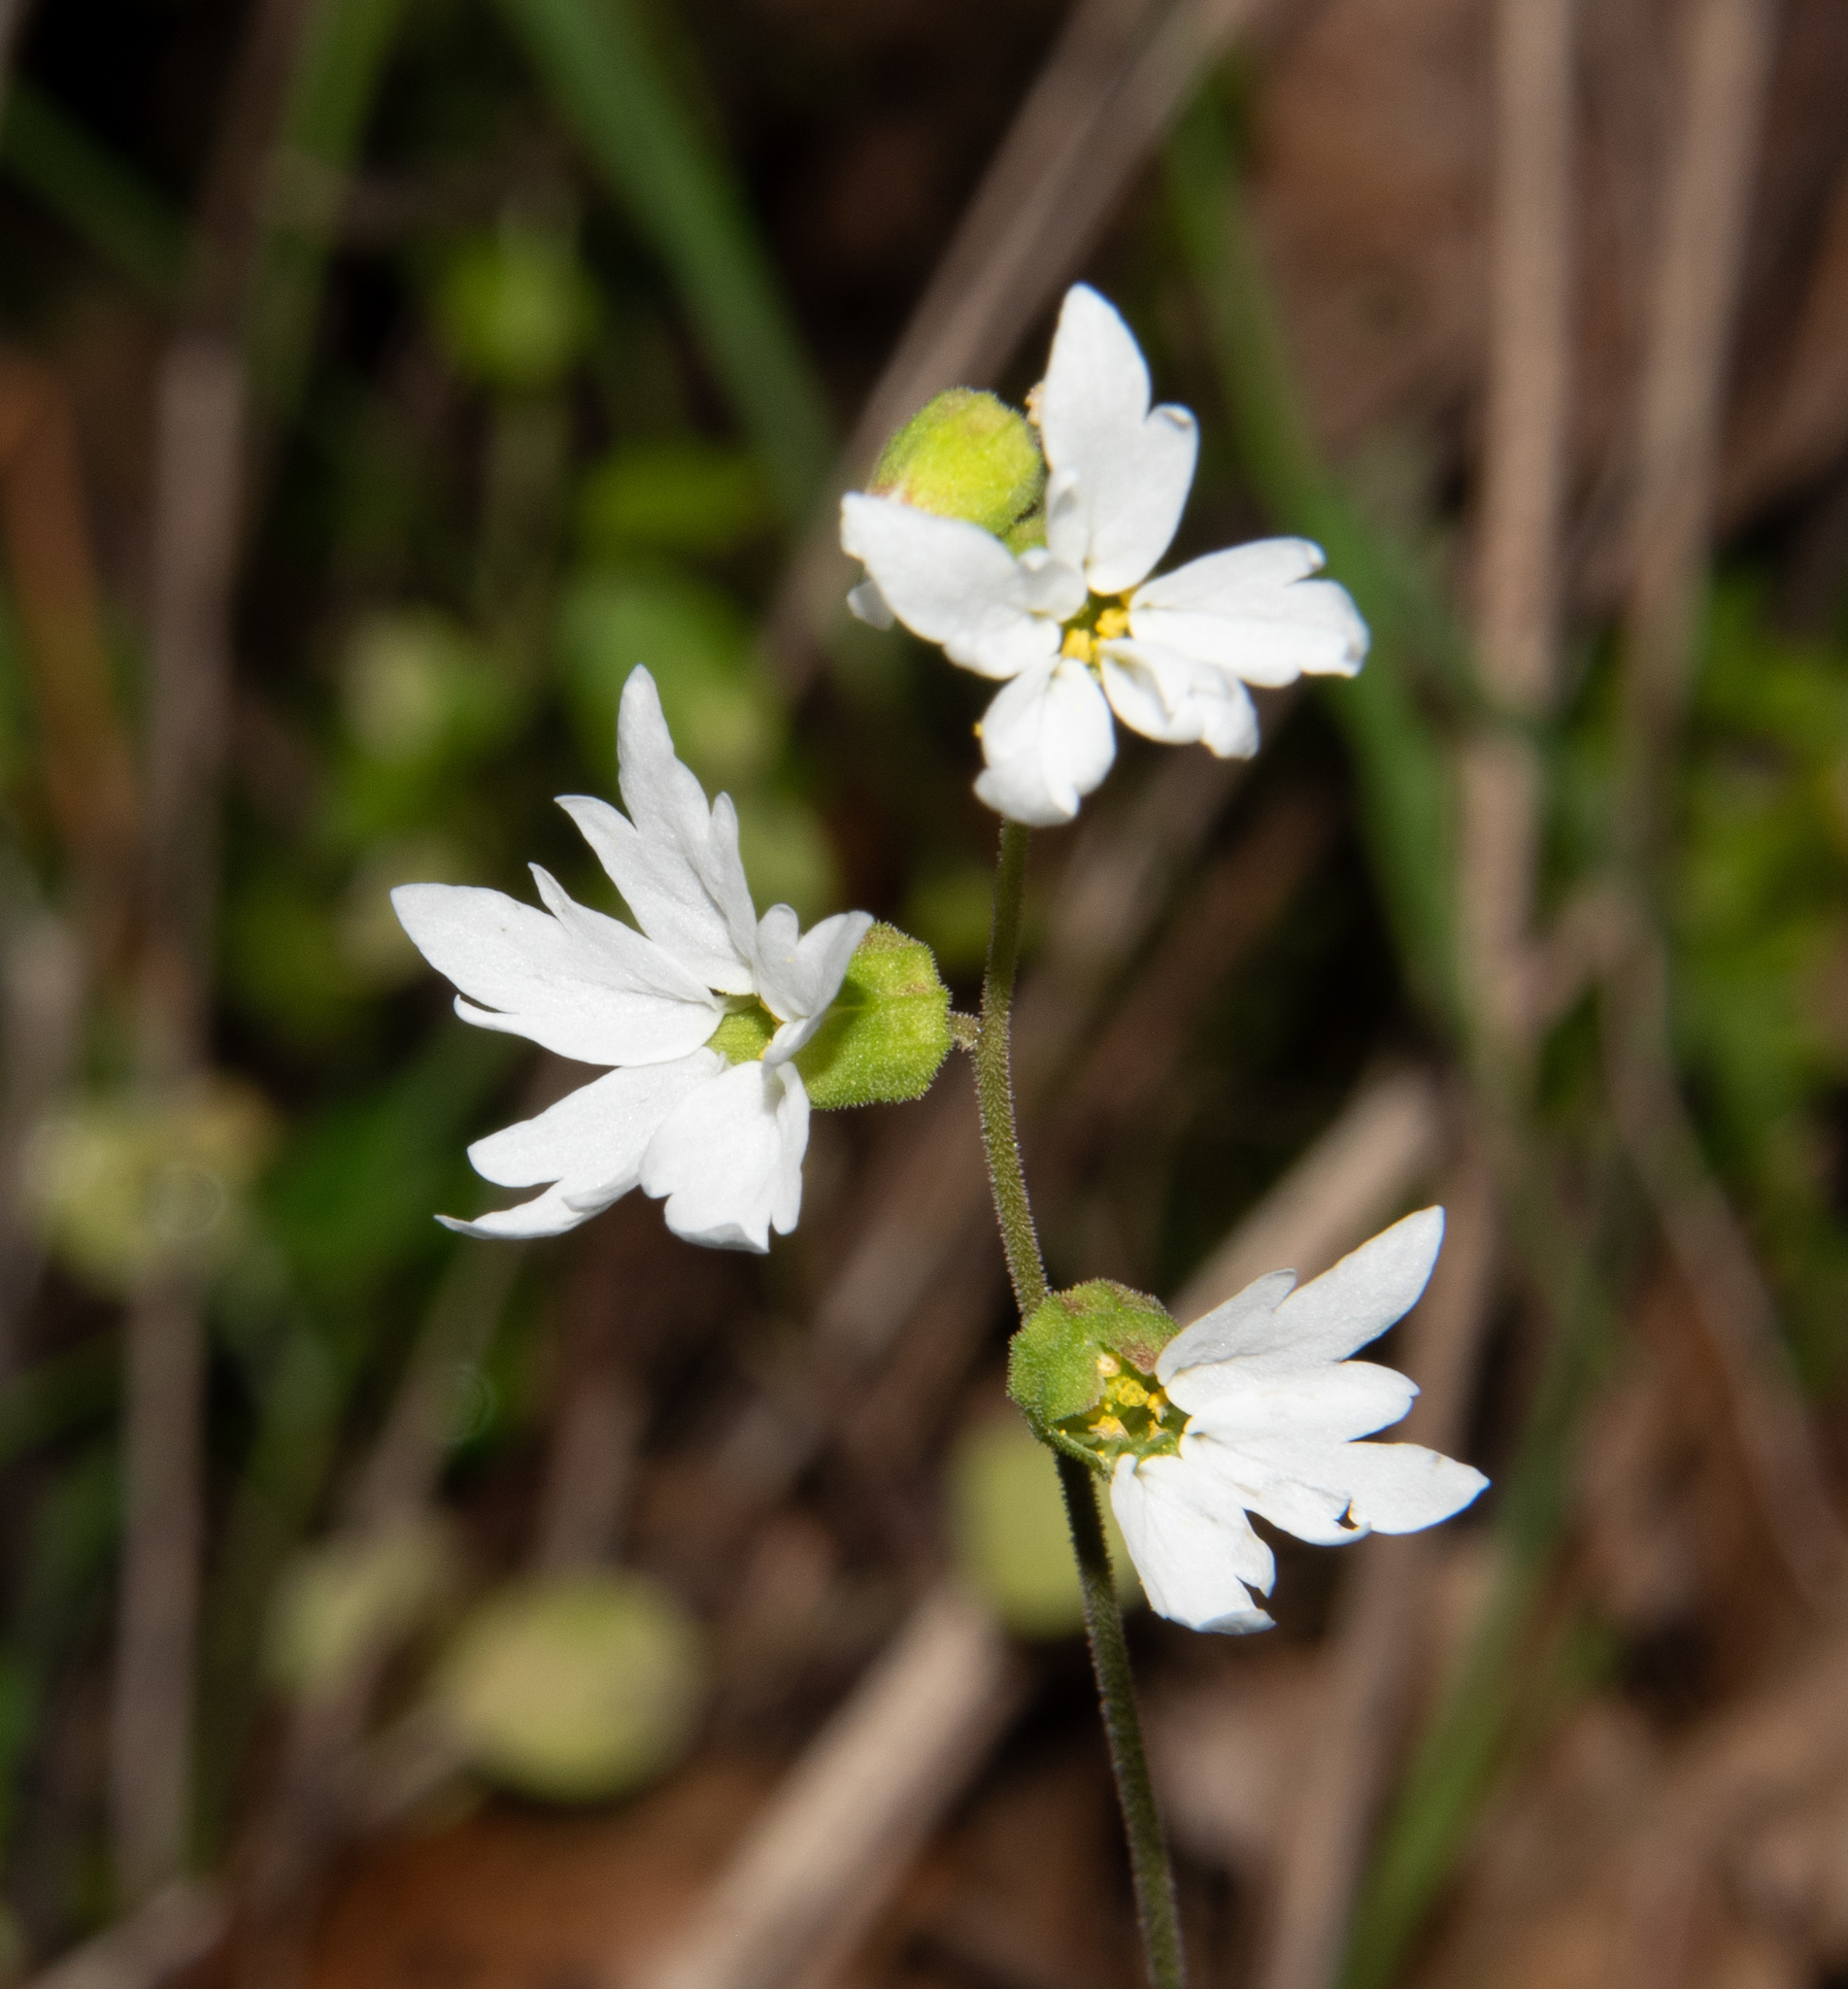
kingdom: Plantae
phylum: Tracheophyta
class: Magnoliopsida
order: Saxifragales
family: Saxifragaceae
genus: Lithophragma
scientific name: Lithophragma heterophyllum
